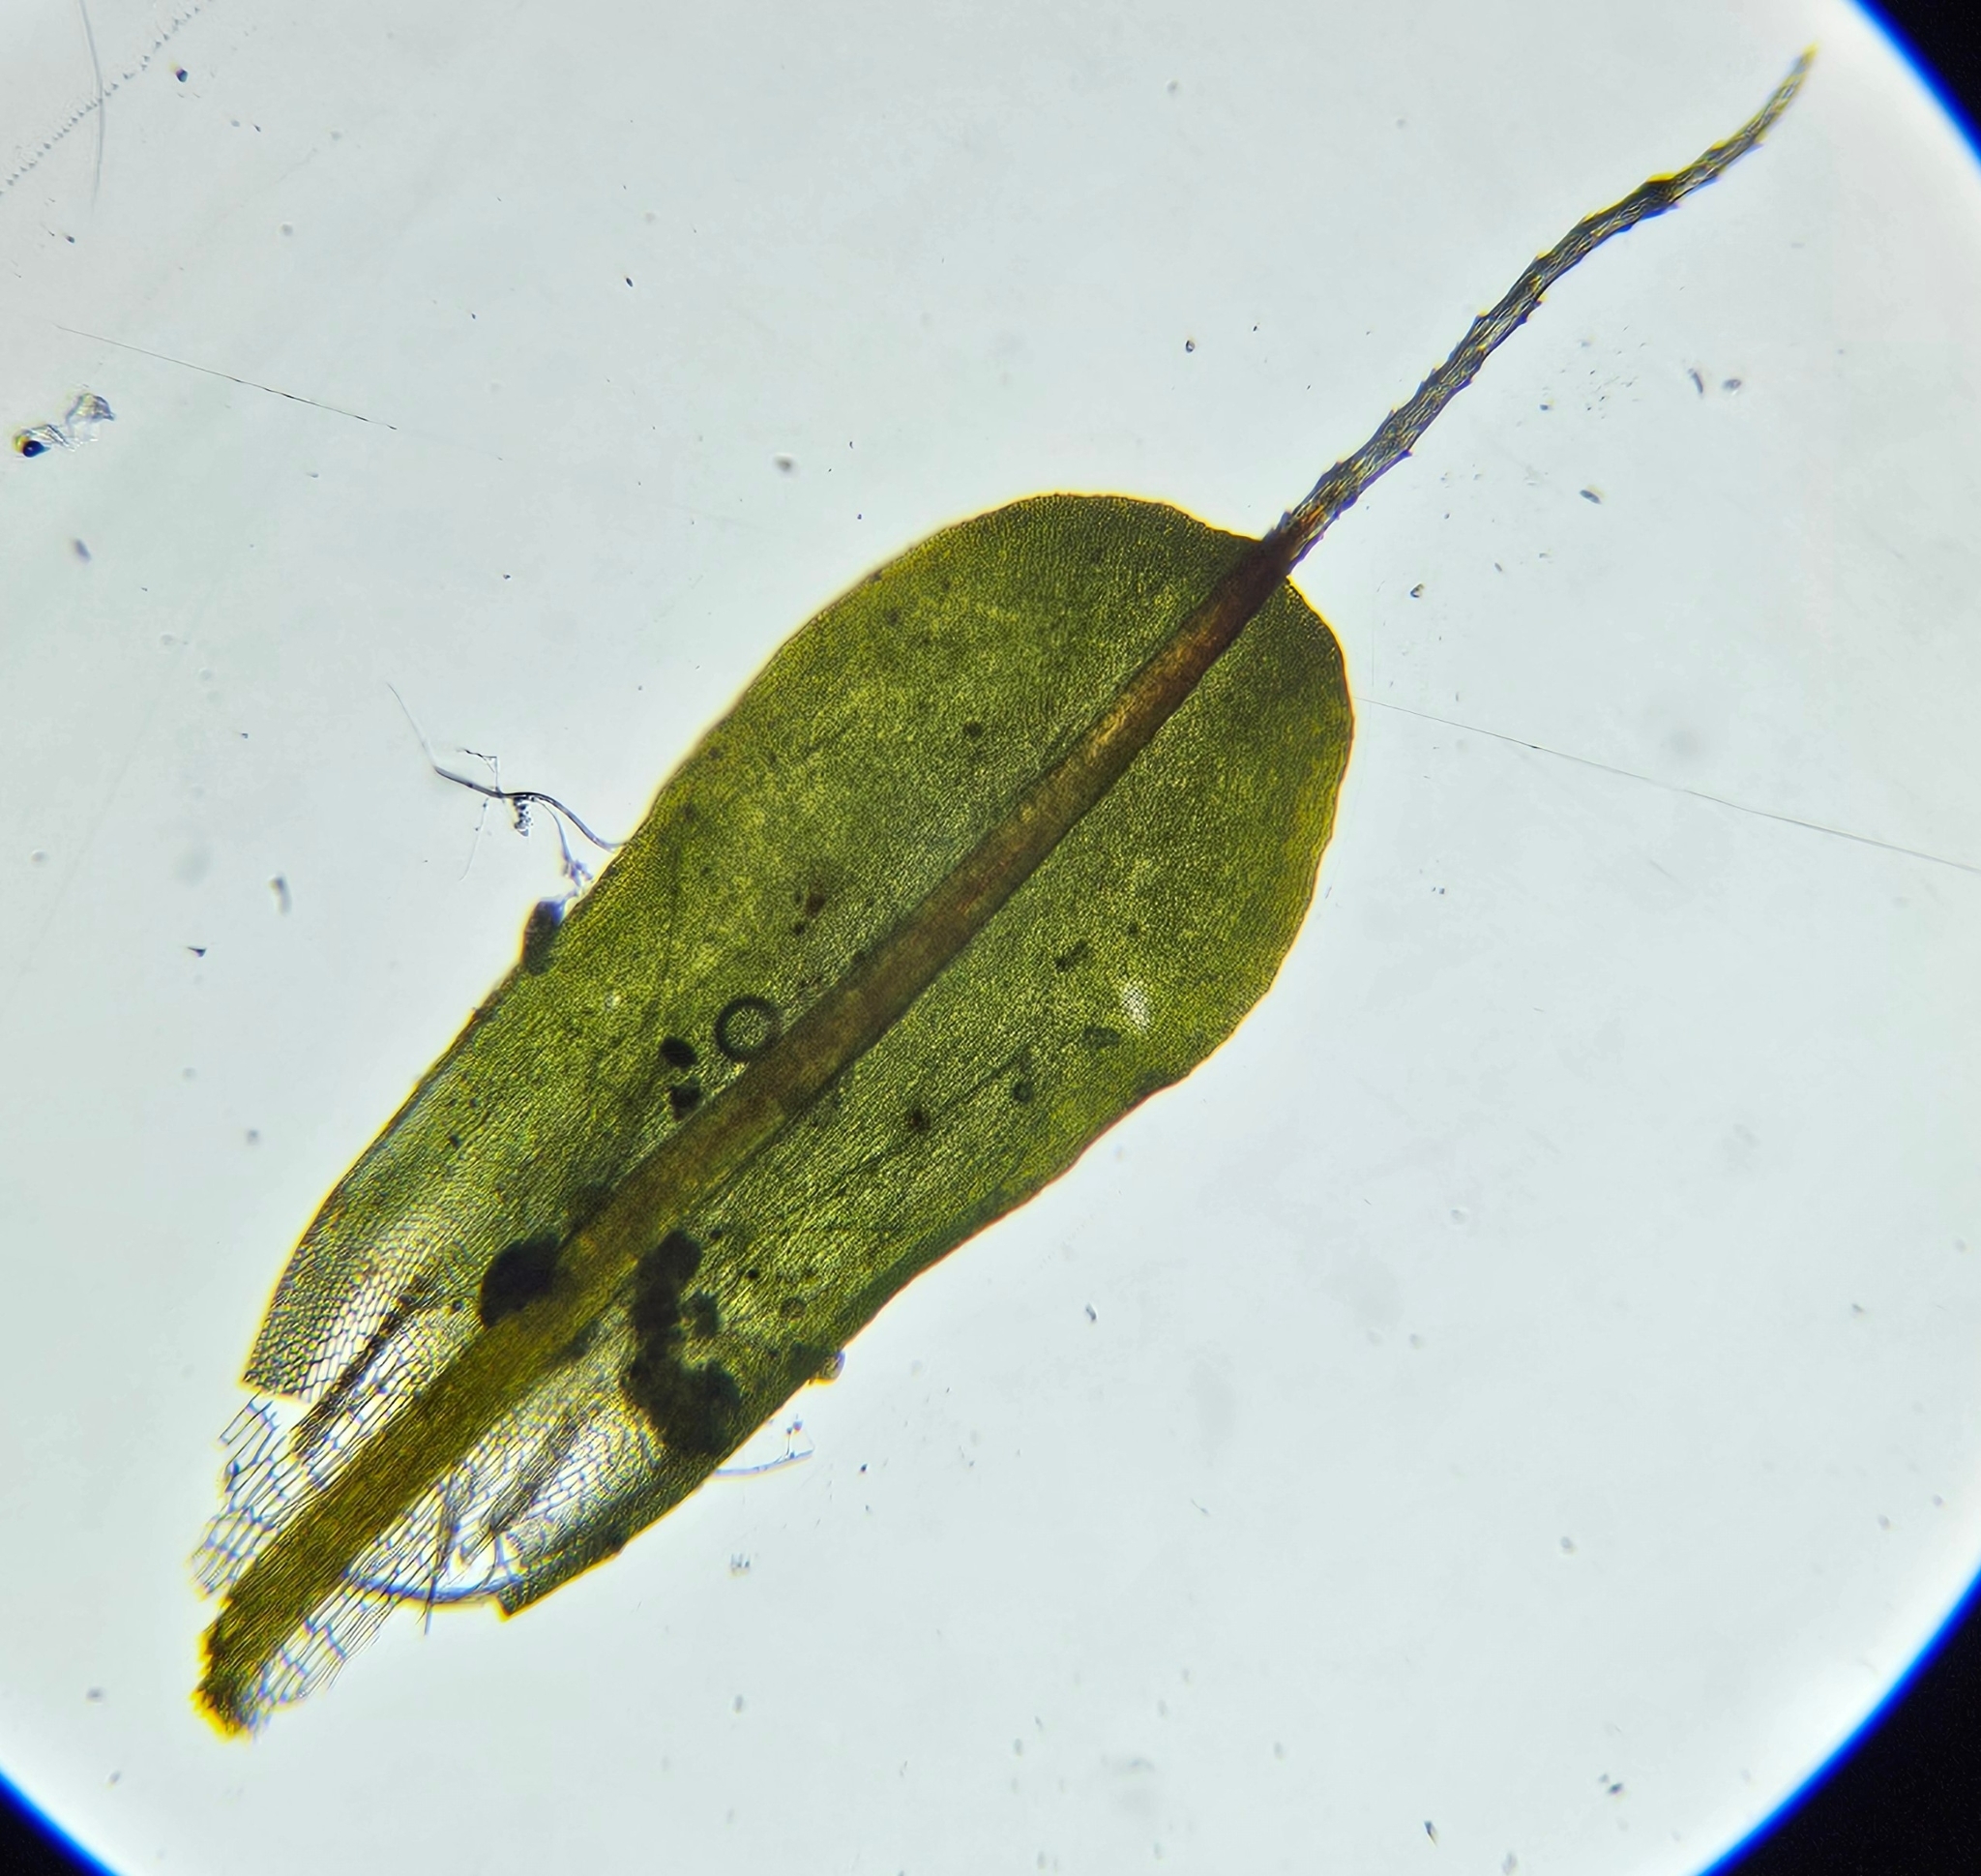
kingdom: Plantae
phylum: Bryophyta
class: Bryopsida
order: Pottiales
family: Pottiaceae
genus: Syntrichia
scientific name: Syntrichia montana
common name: Intermediate screw-moss
